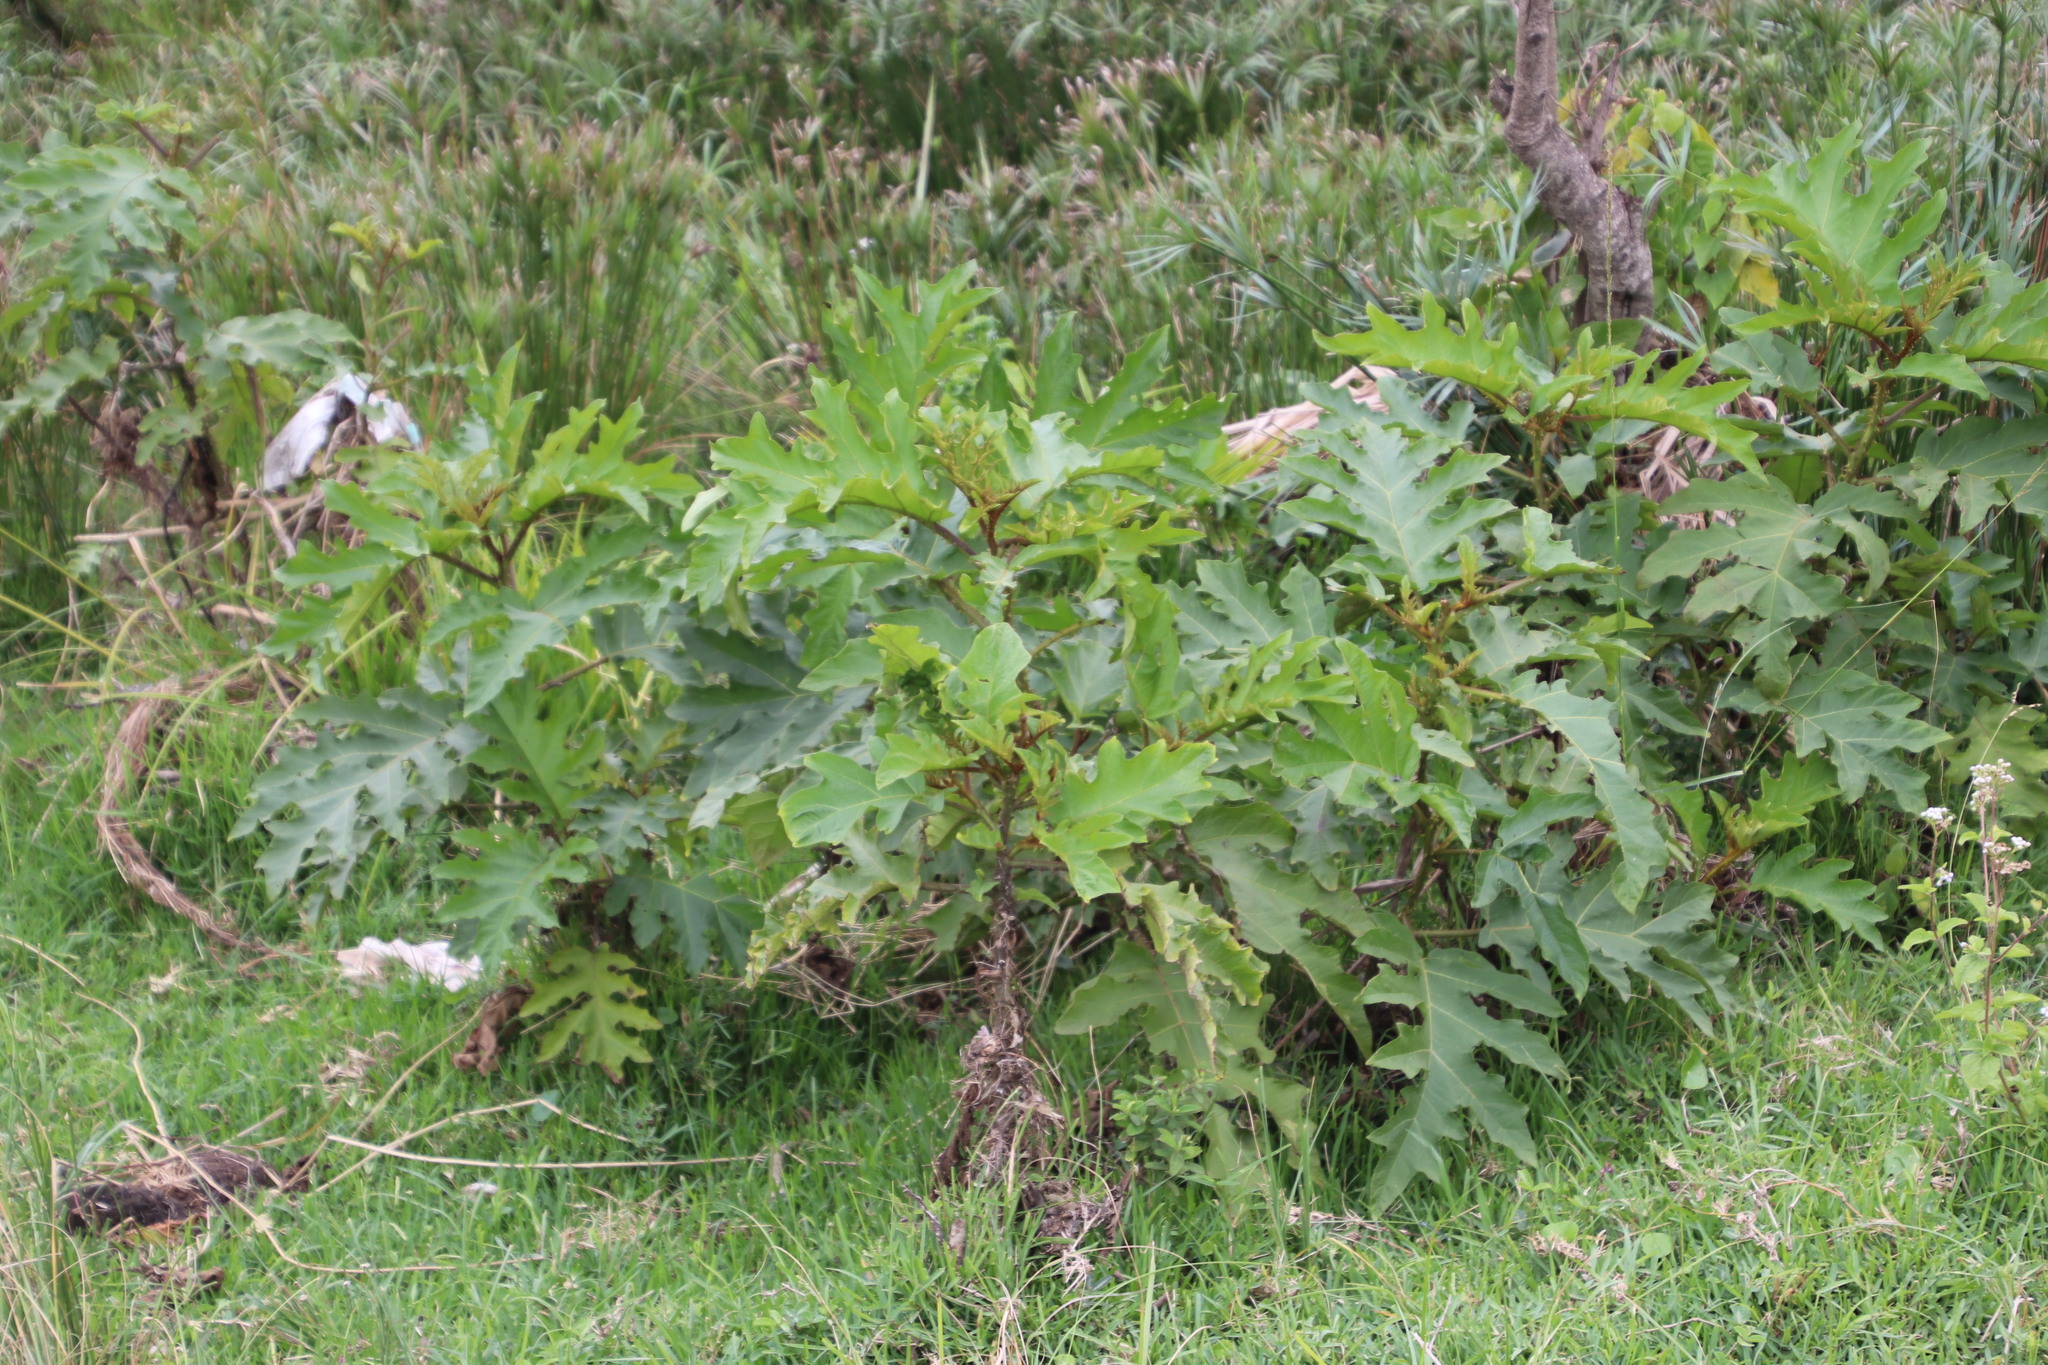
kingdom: Plantae
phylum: Tracheophyta
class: Magnoliopsida
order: Solanales
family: Solanaceae
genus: Solanum
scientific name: Solanum chrysotrichum
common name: Nightshade
